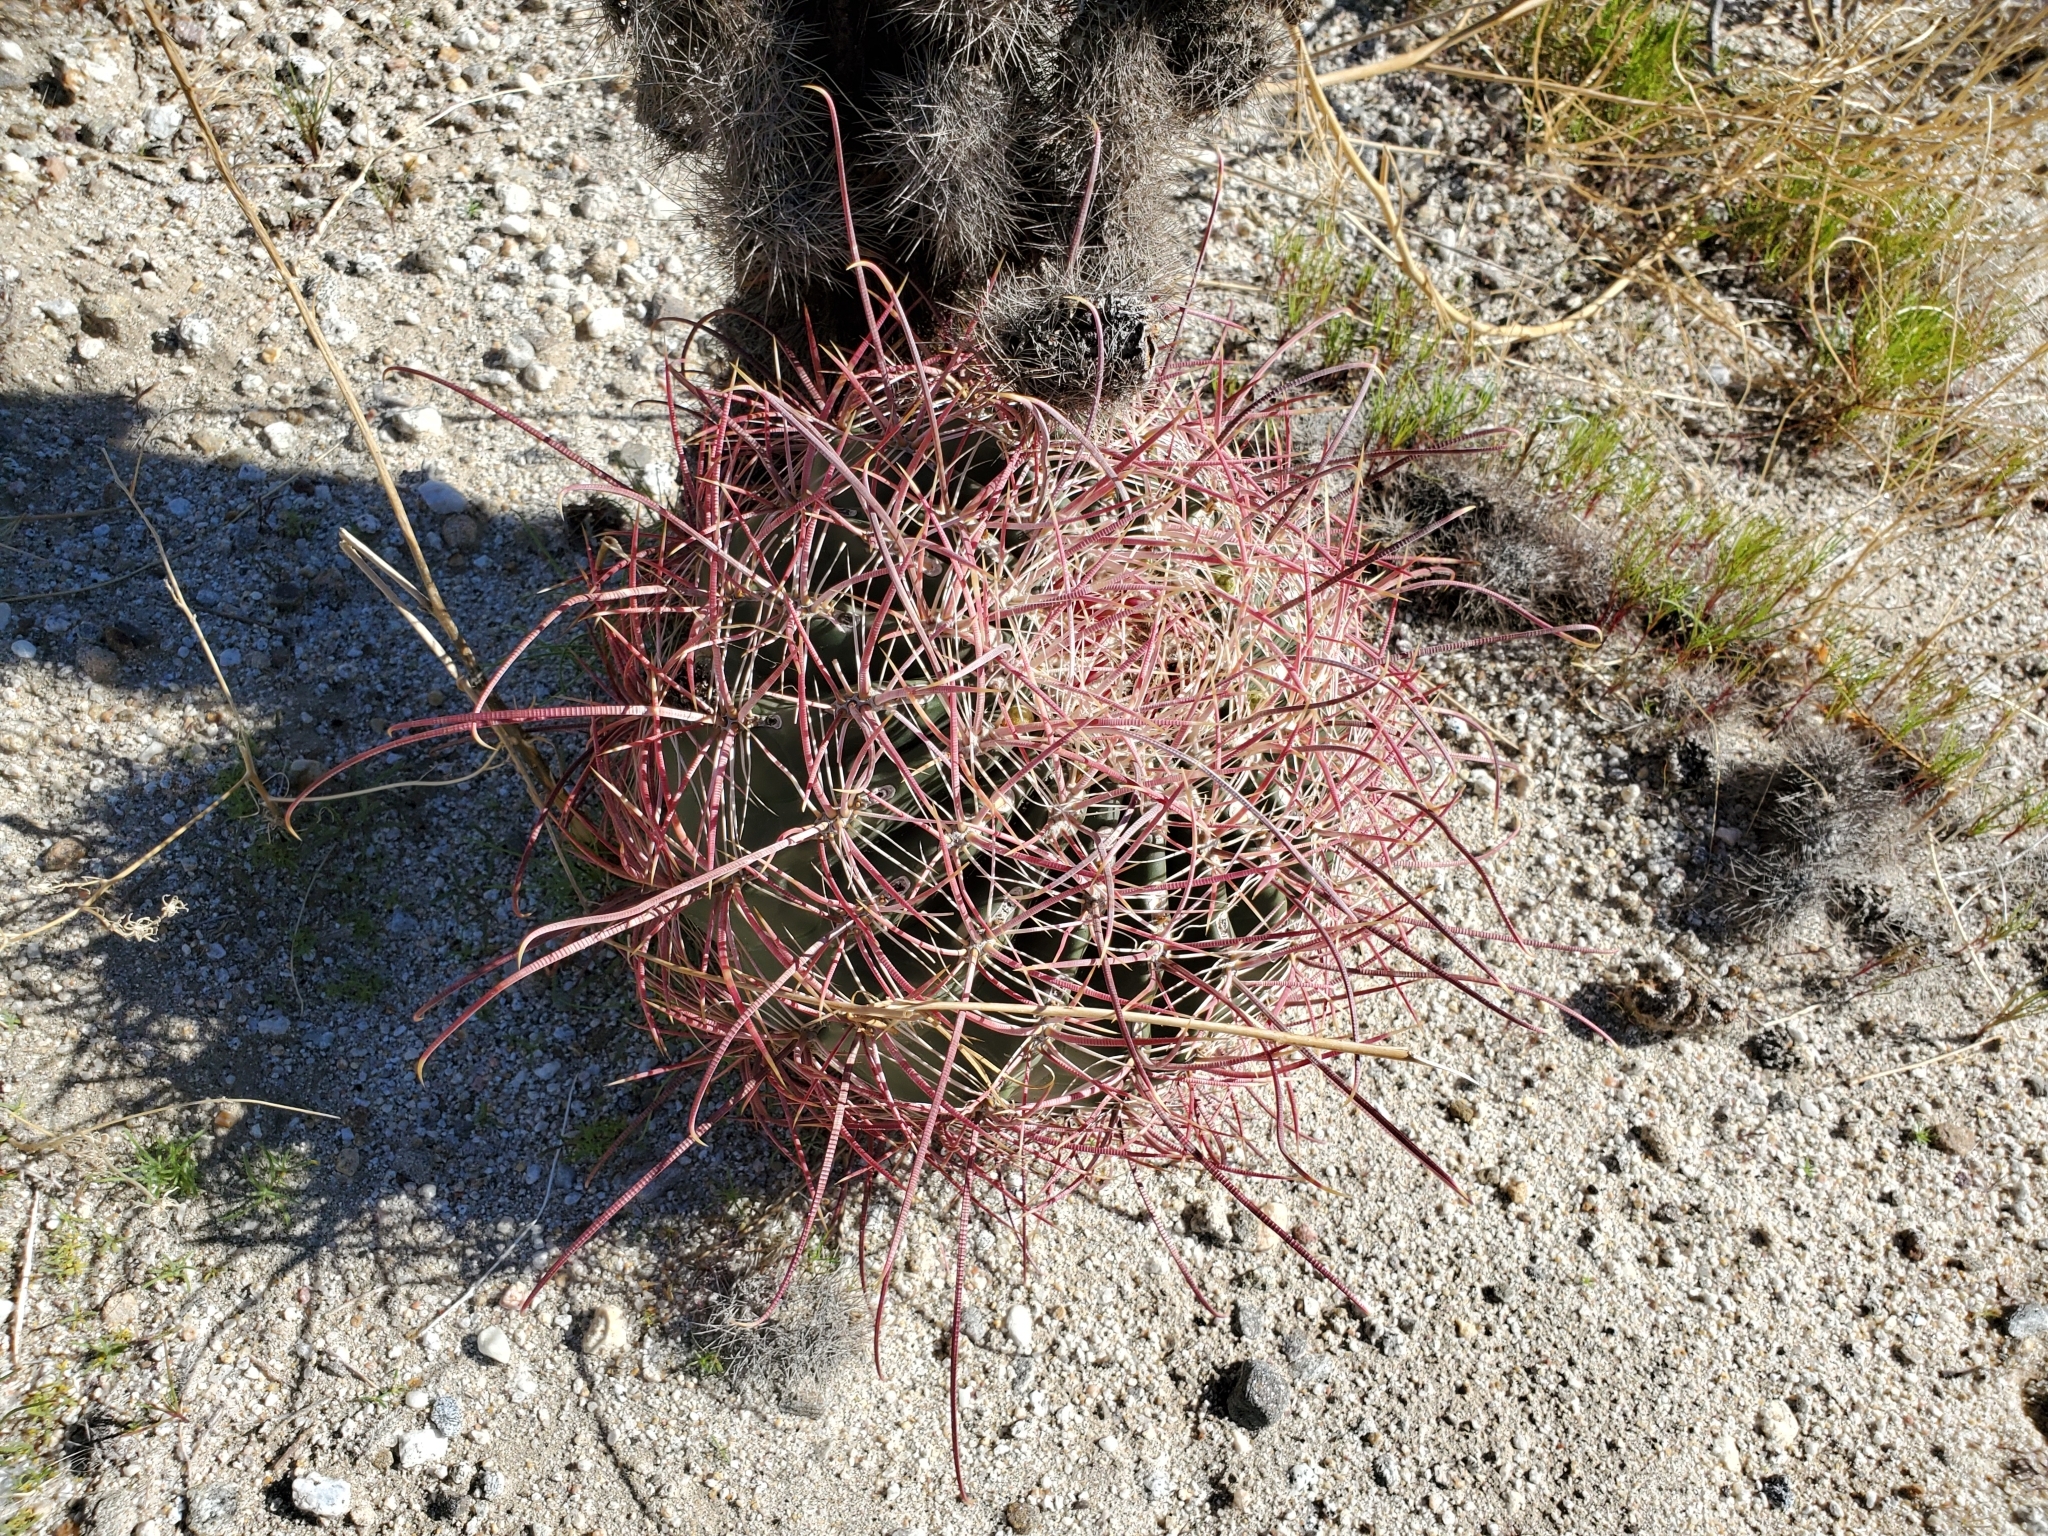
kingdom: Plantae
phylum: Tracheophyta
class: Magnoliopsida
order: Caryophyllales
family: Cactaceae
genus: Ferocactus
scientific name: Ferocactus cylindraceus
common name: California barrel cactus
